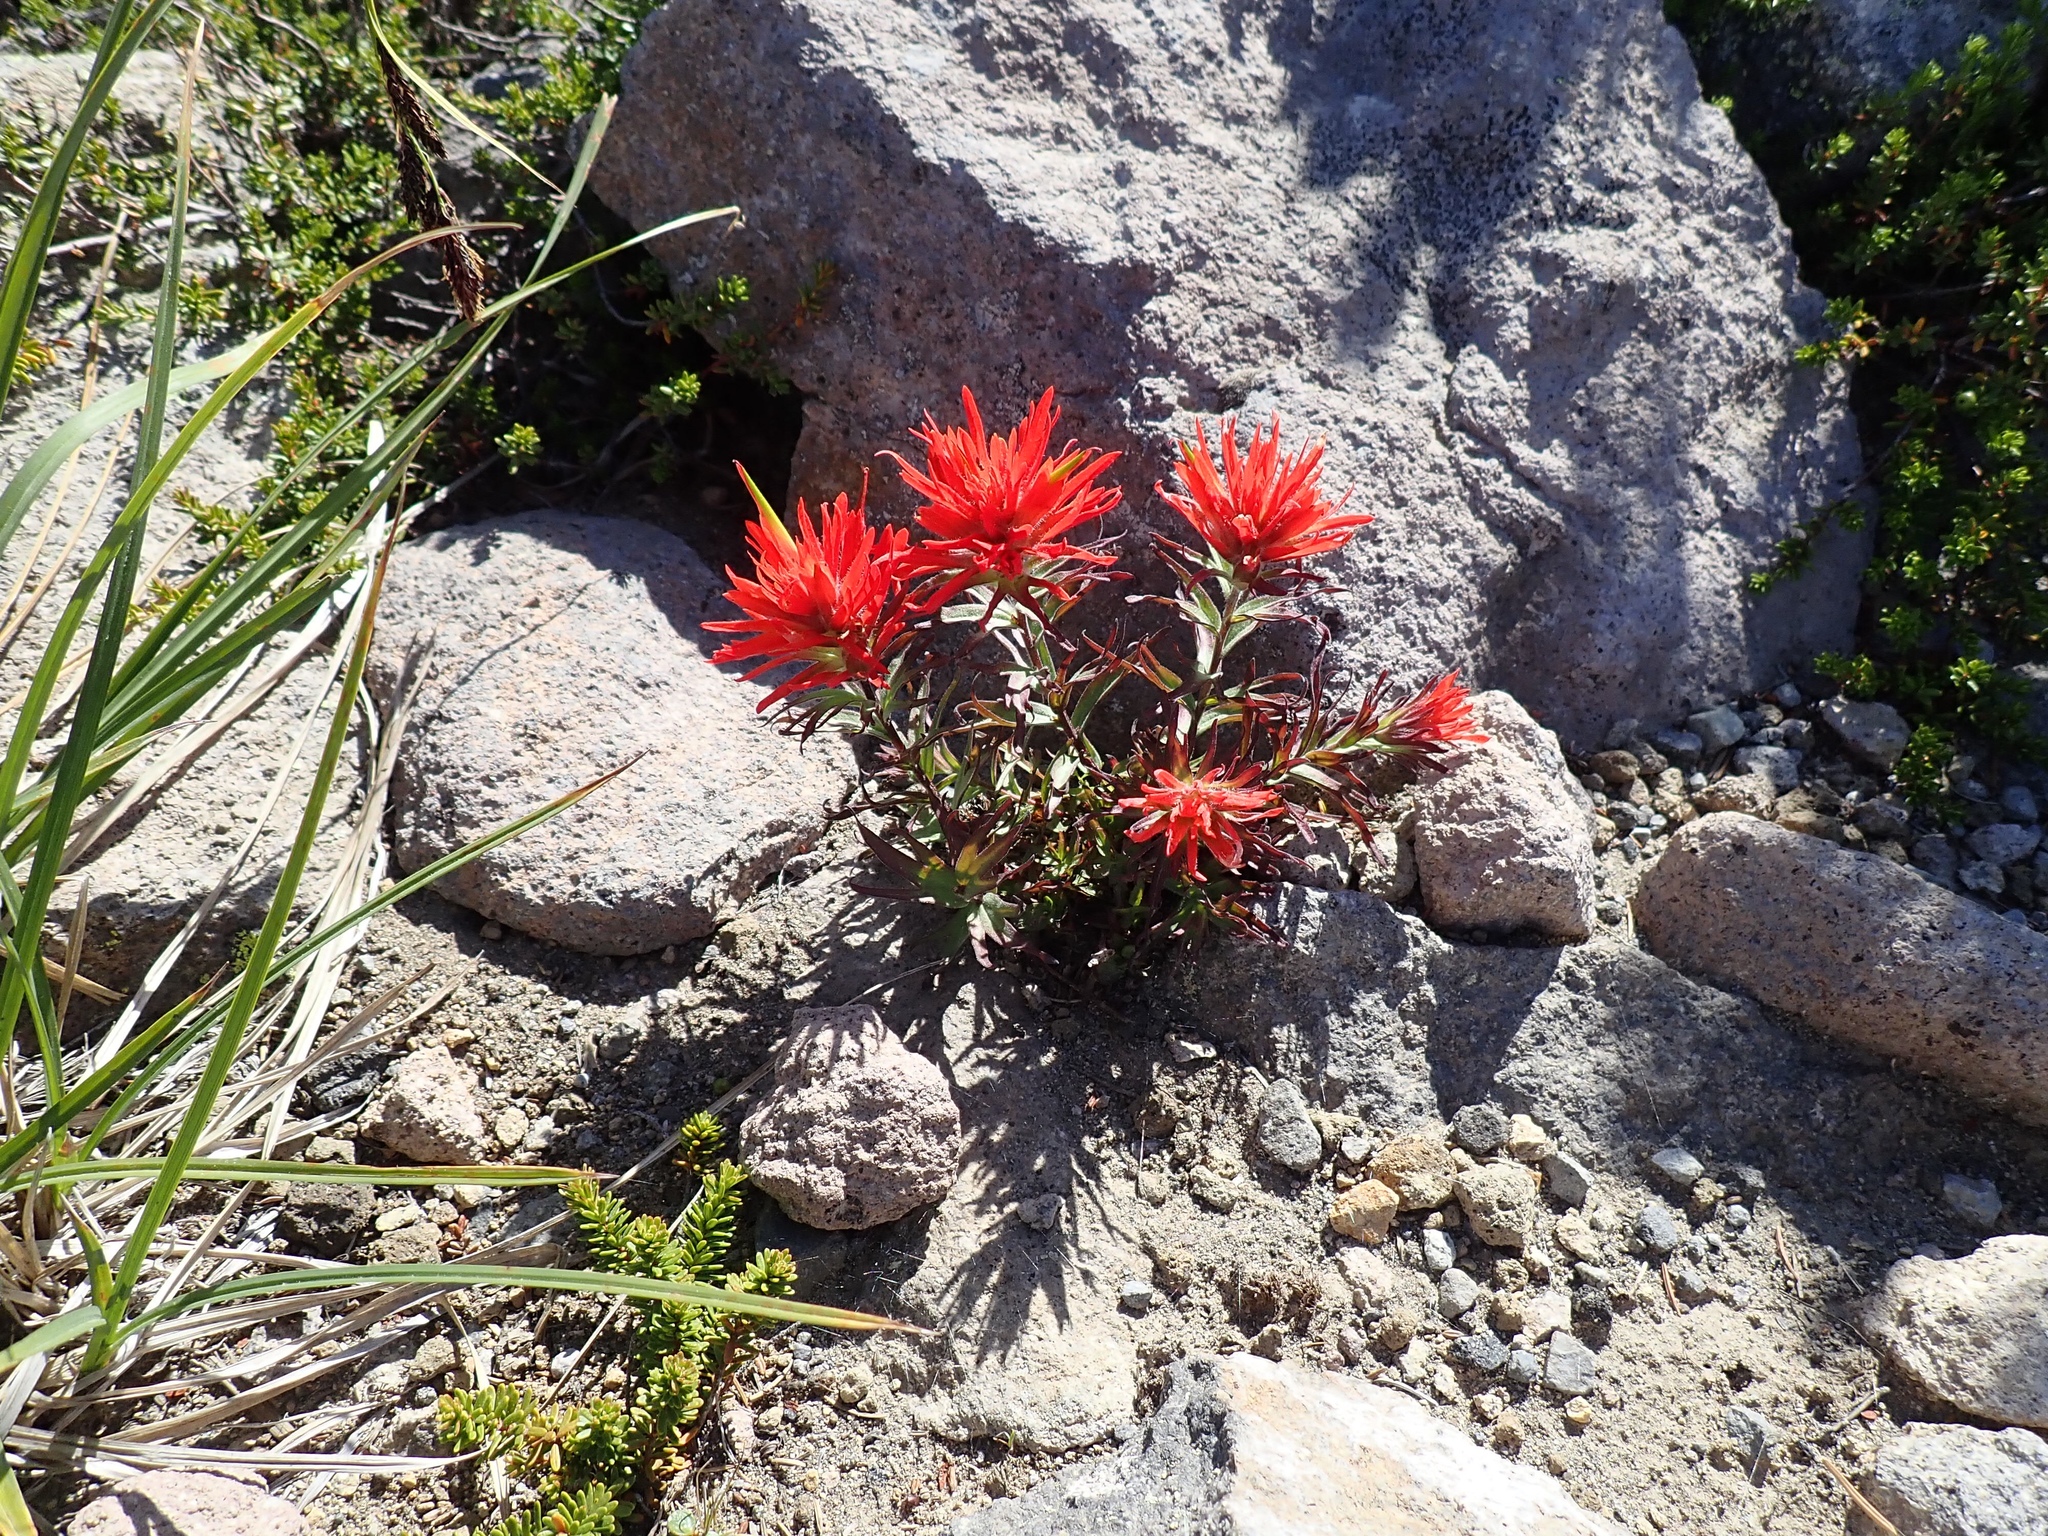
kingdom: Plantae
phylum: Tracheophyta
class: Magnoliopsida
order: Lamiales
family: Orobanchaceae
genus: Castilleja
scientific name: Castilleja rupicola
